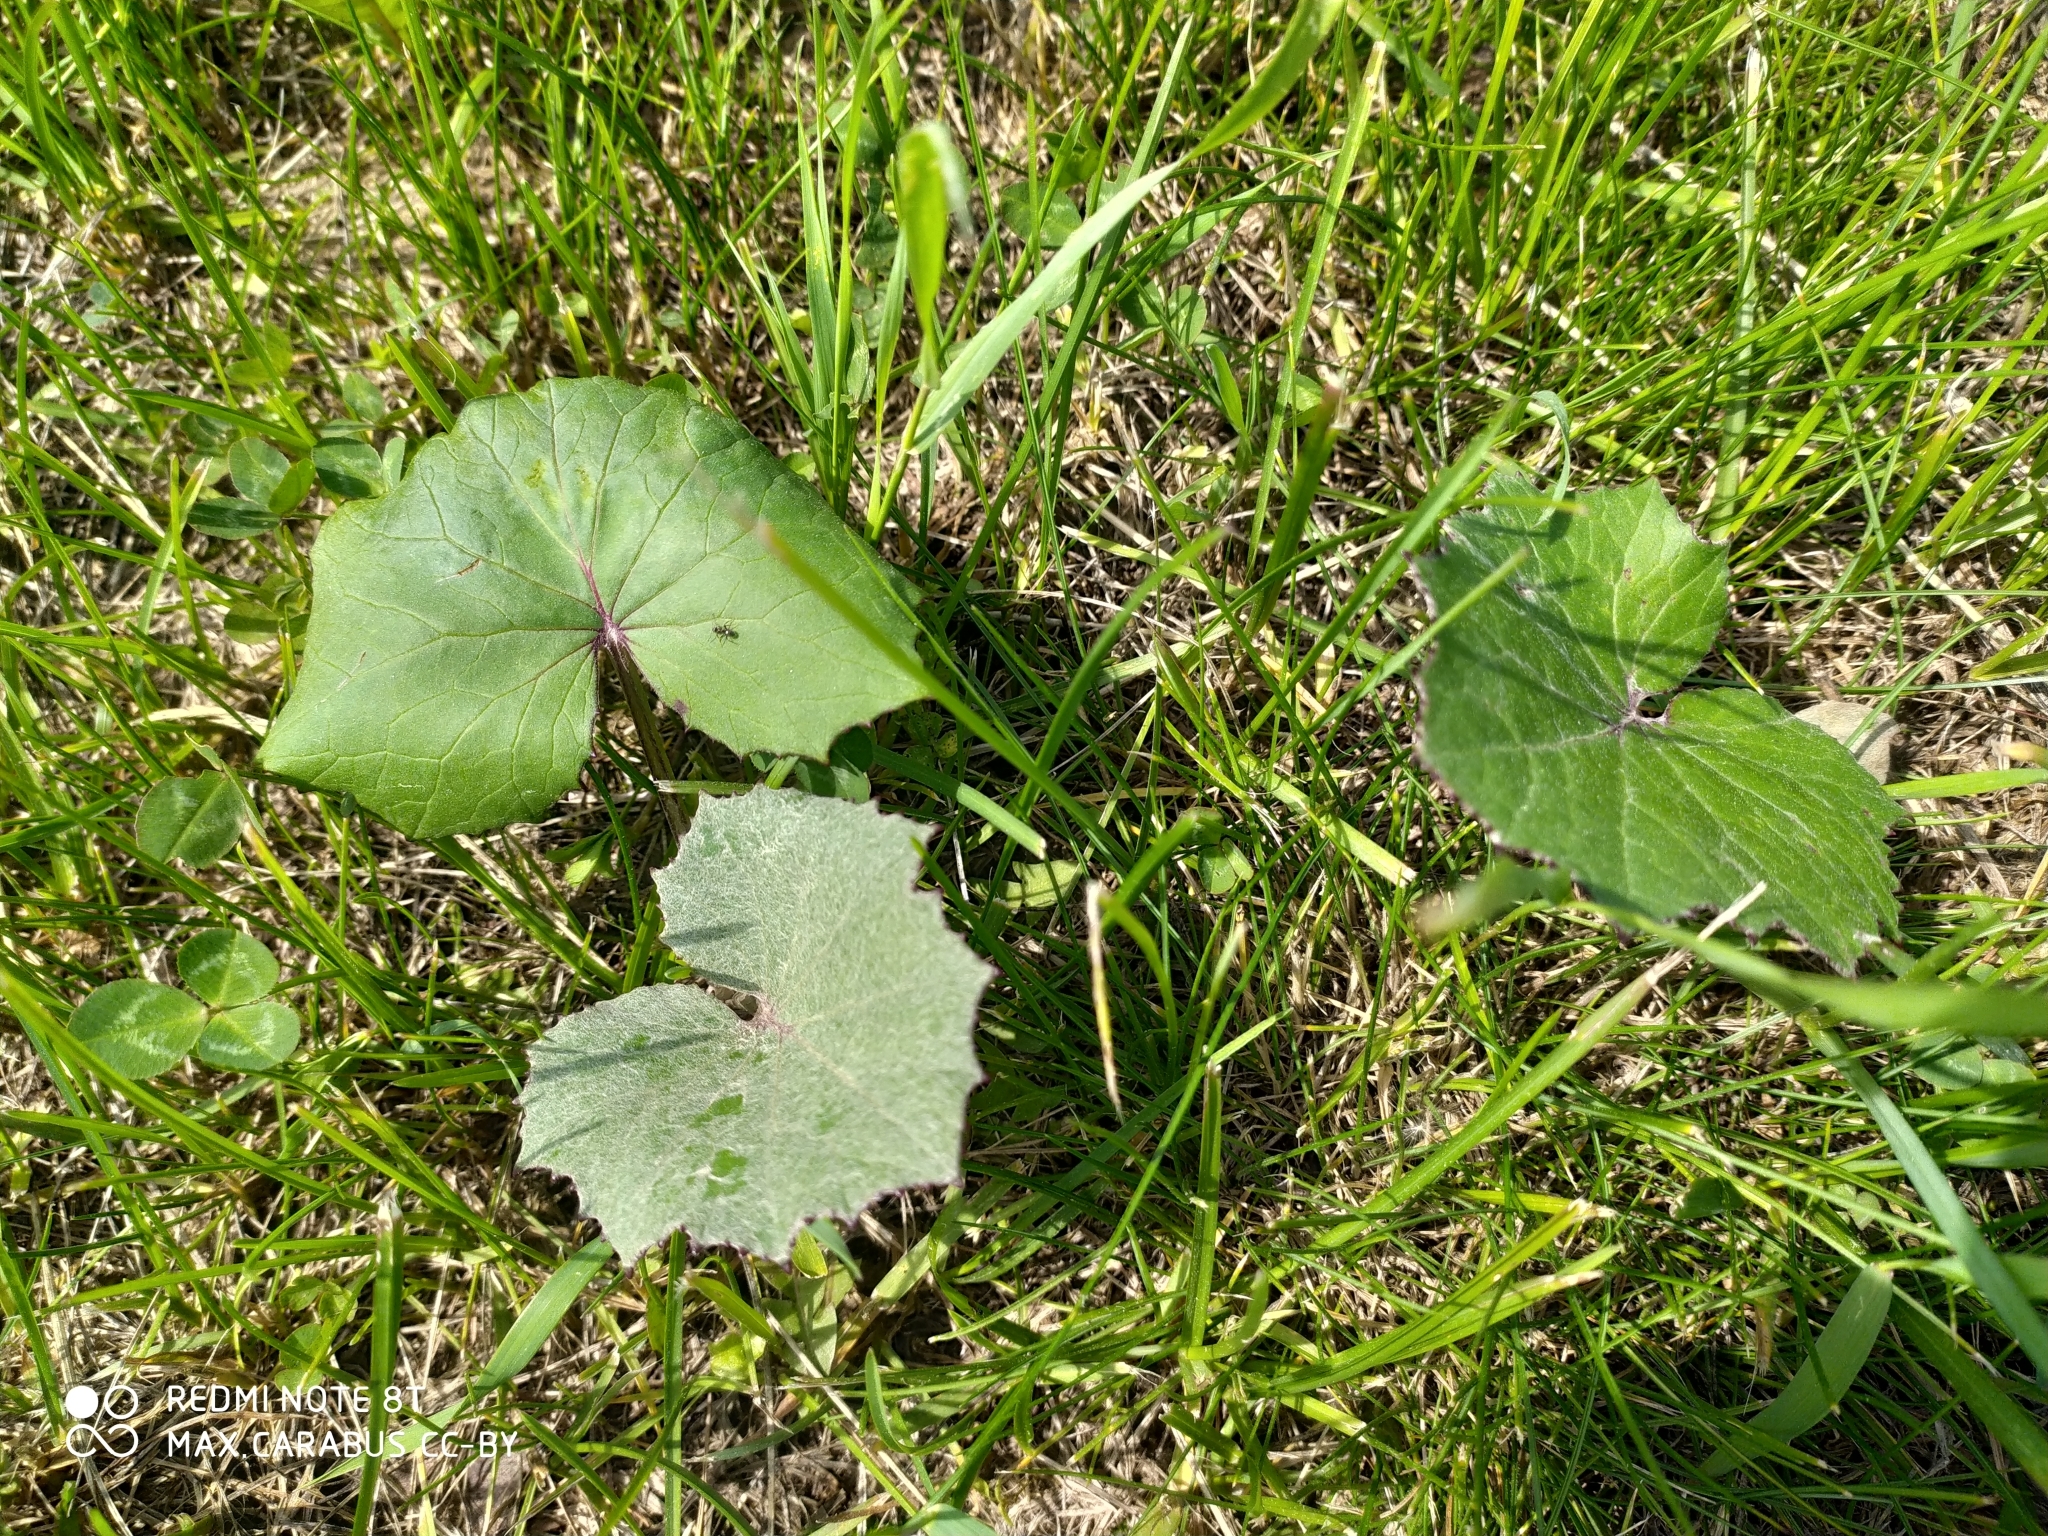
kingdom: Plantae
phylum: Tracheophyta
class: Magnoliopsida
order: Asterales
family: Asteraceae
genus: Tussilago
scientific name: Tussilago farfara
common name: Coltsfoot
